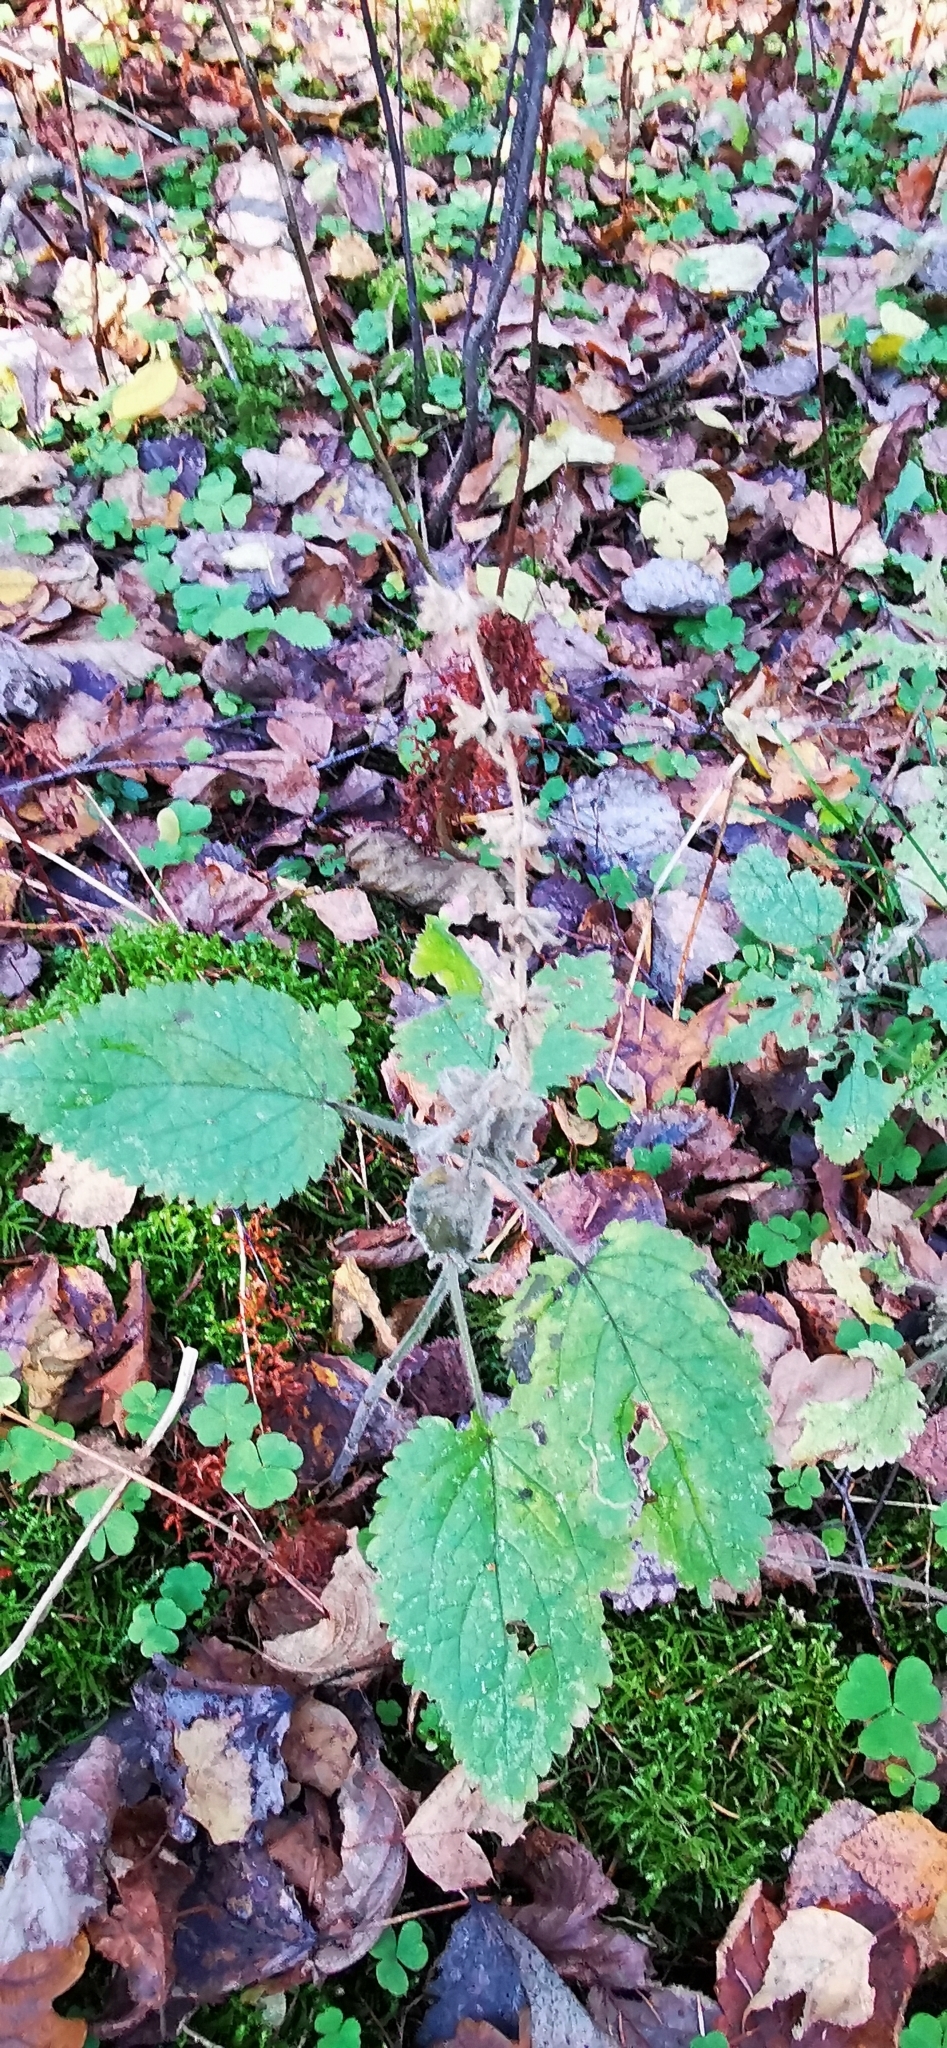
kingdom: Plantae
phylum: Tracheophyta
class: Magnoliopsida
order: Lamiales
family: Lamiaceae
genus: Stachys
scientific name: Stachys sylvatica
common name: Hedge woundwort
